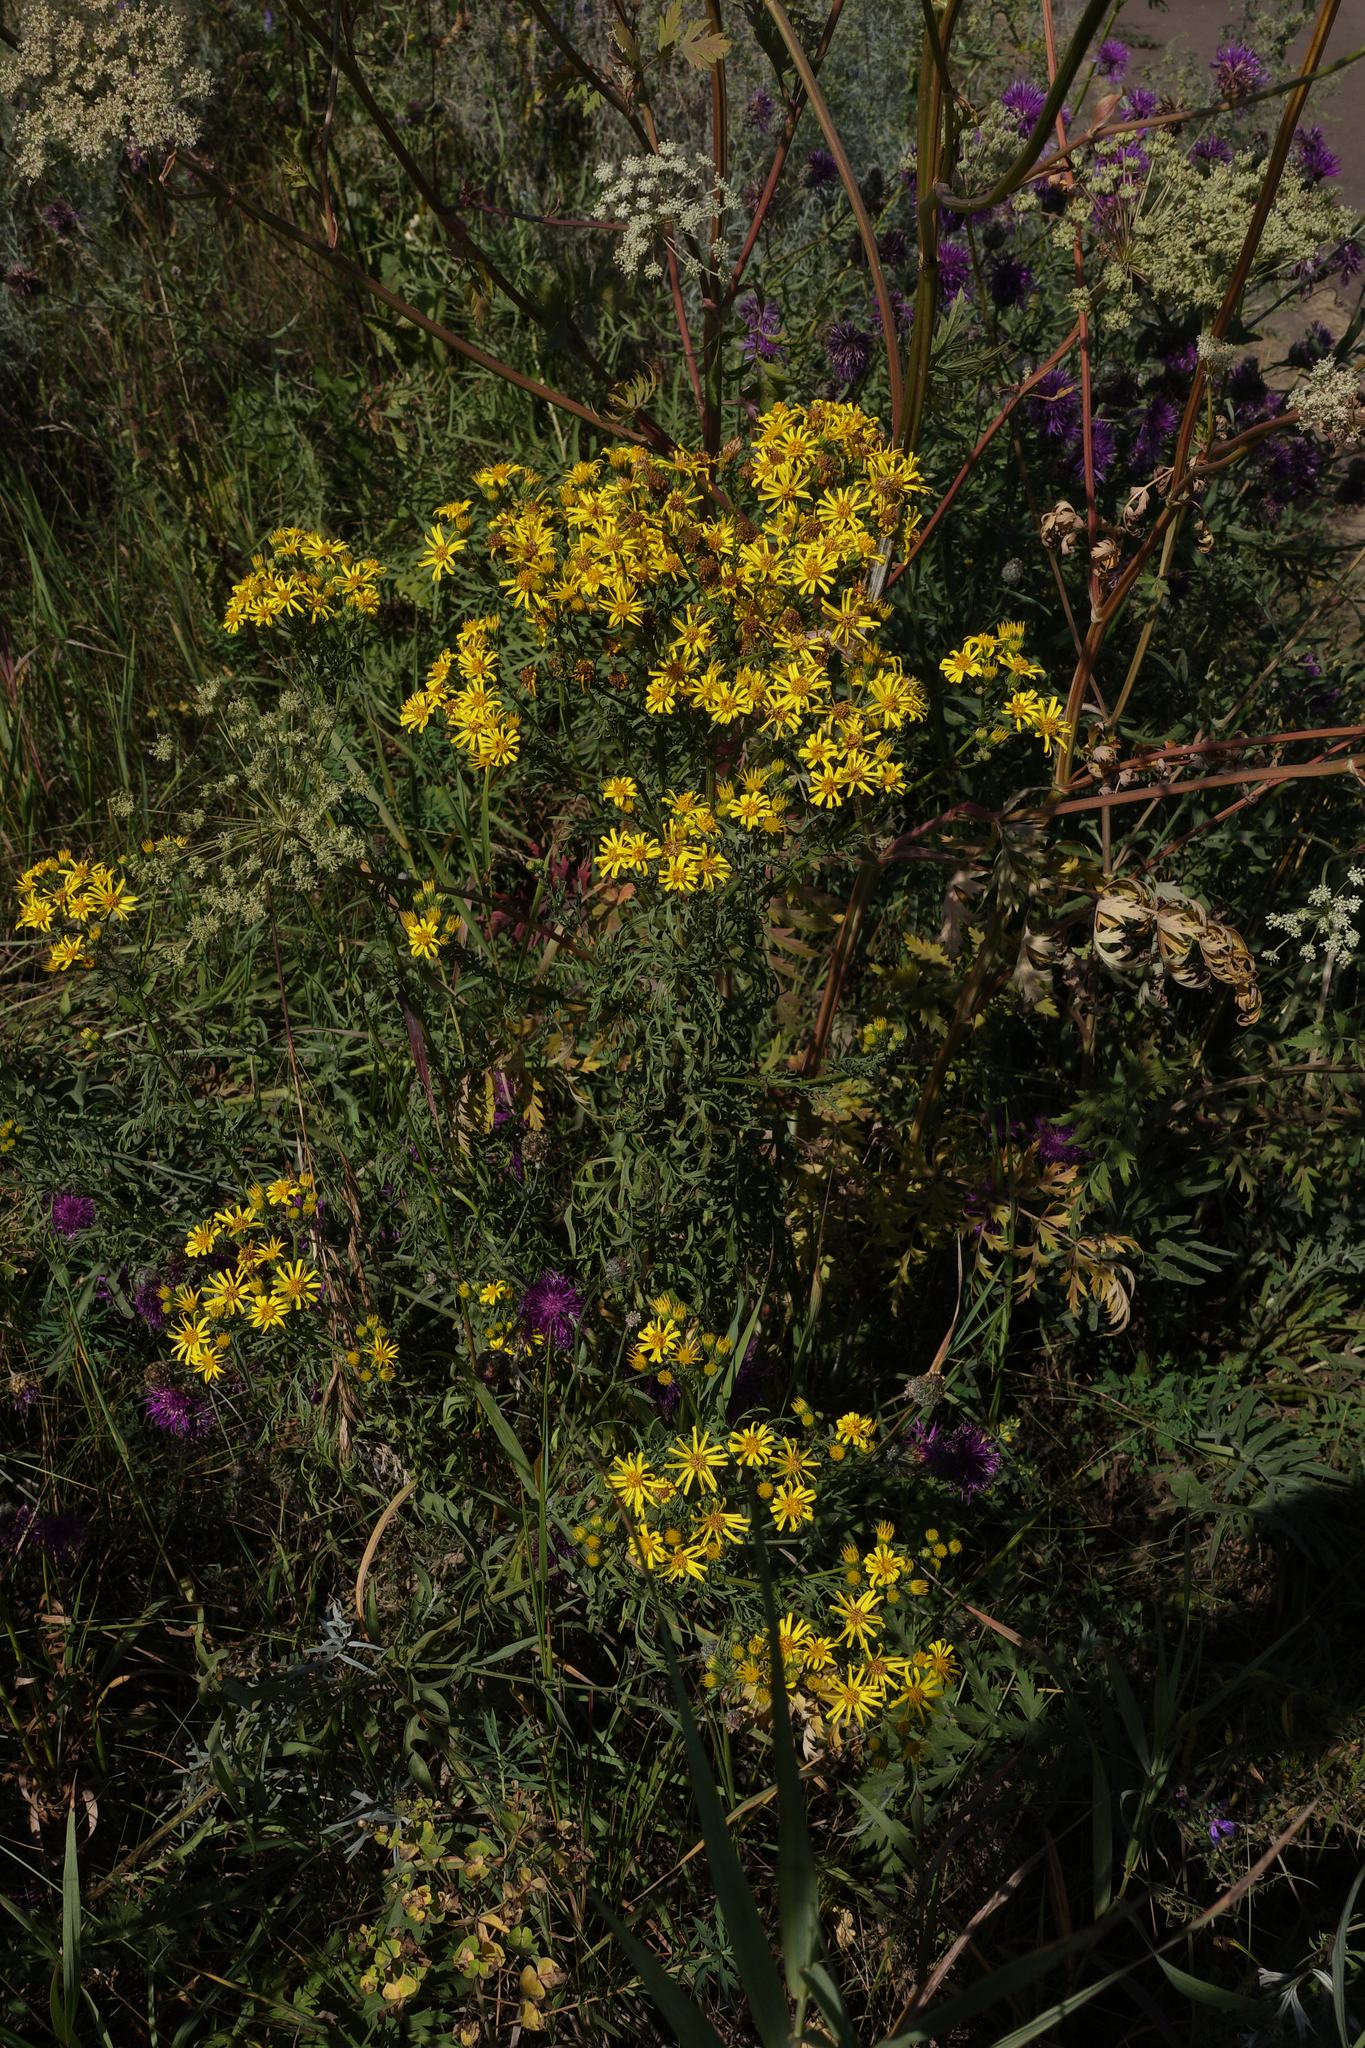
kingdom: Plantae
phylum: Tracheophyta
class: Magnoliopsida
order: Asterales
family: Asteraceae
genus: Jacobaea
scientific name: Jacobaea vulgaris
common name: Stinking willie
